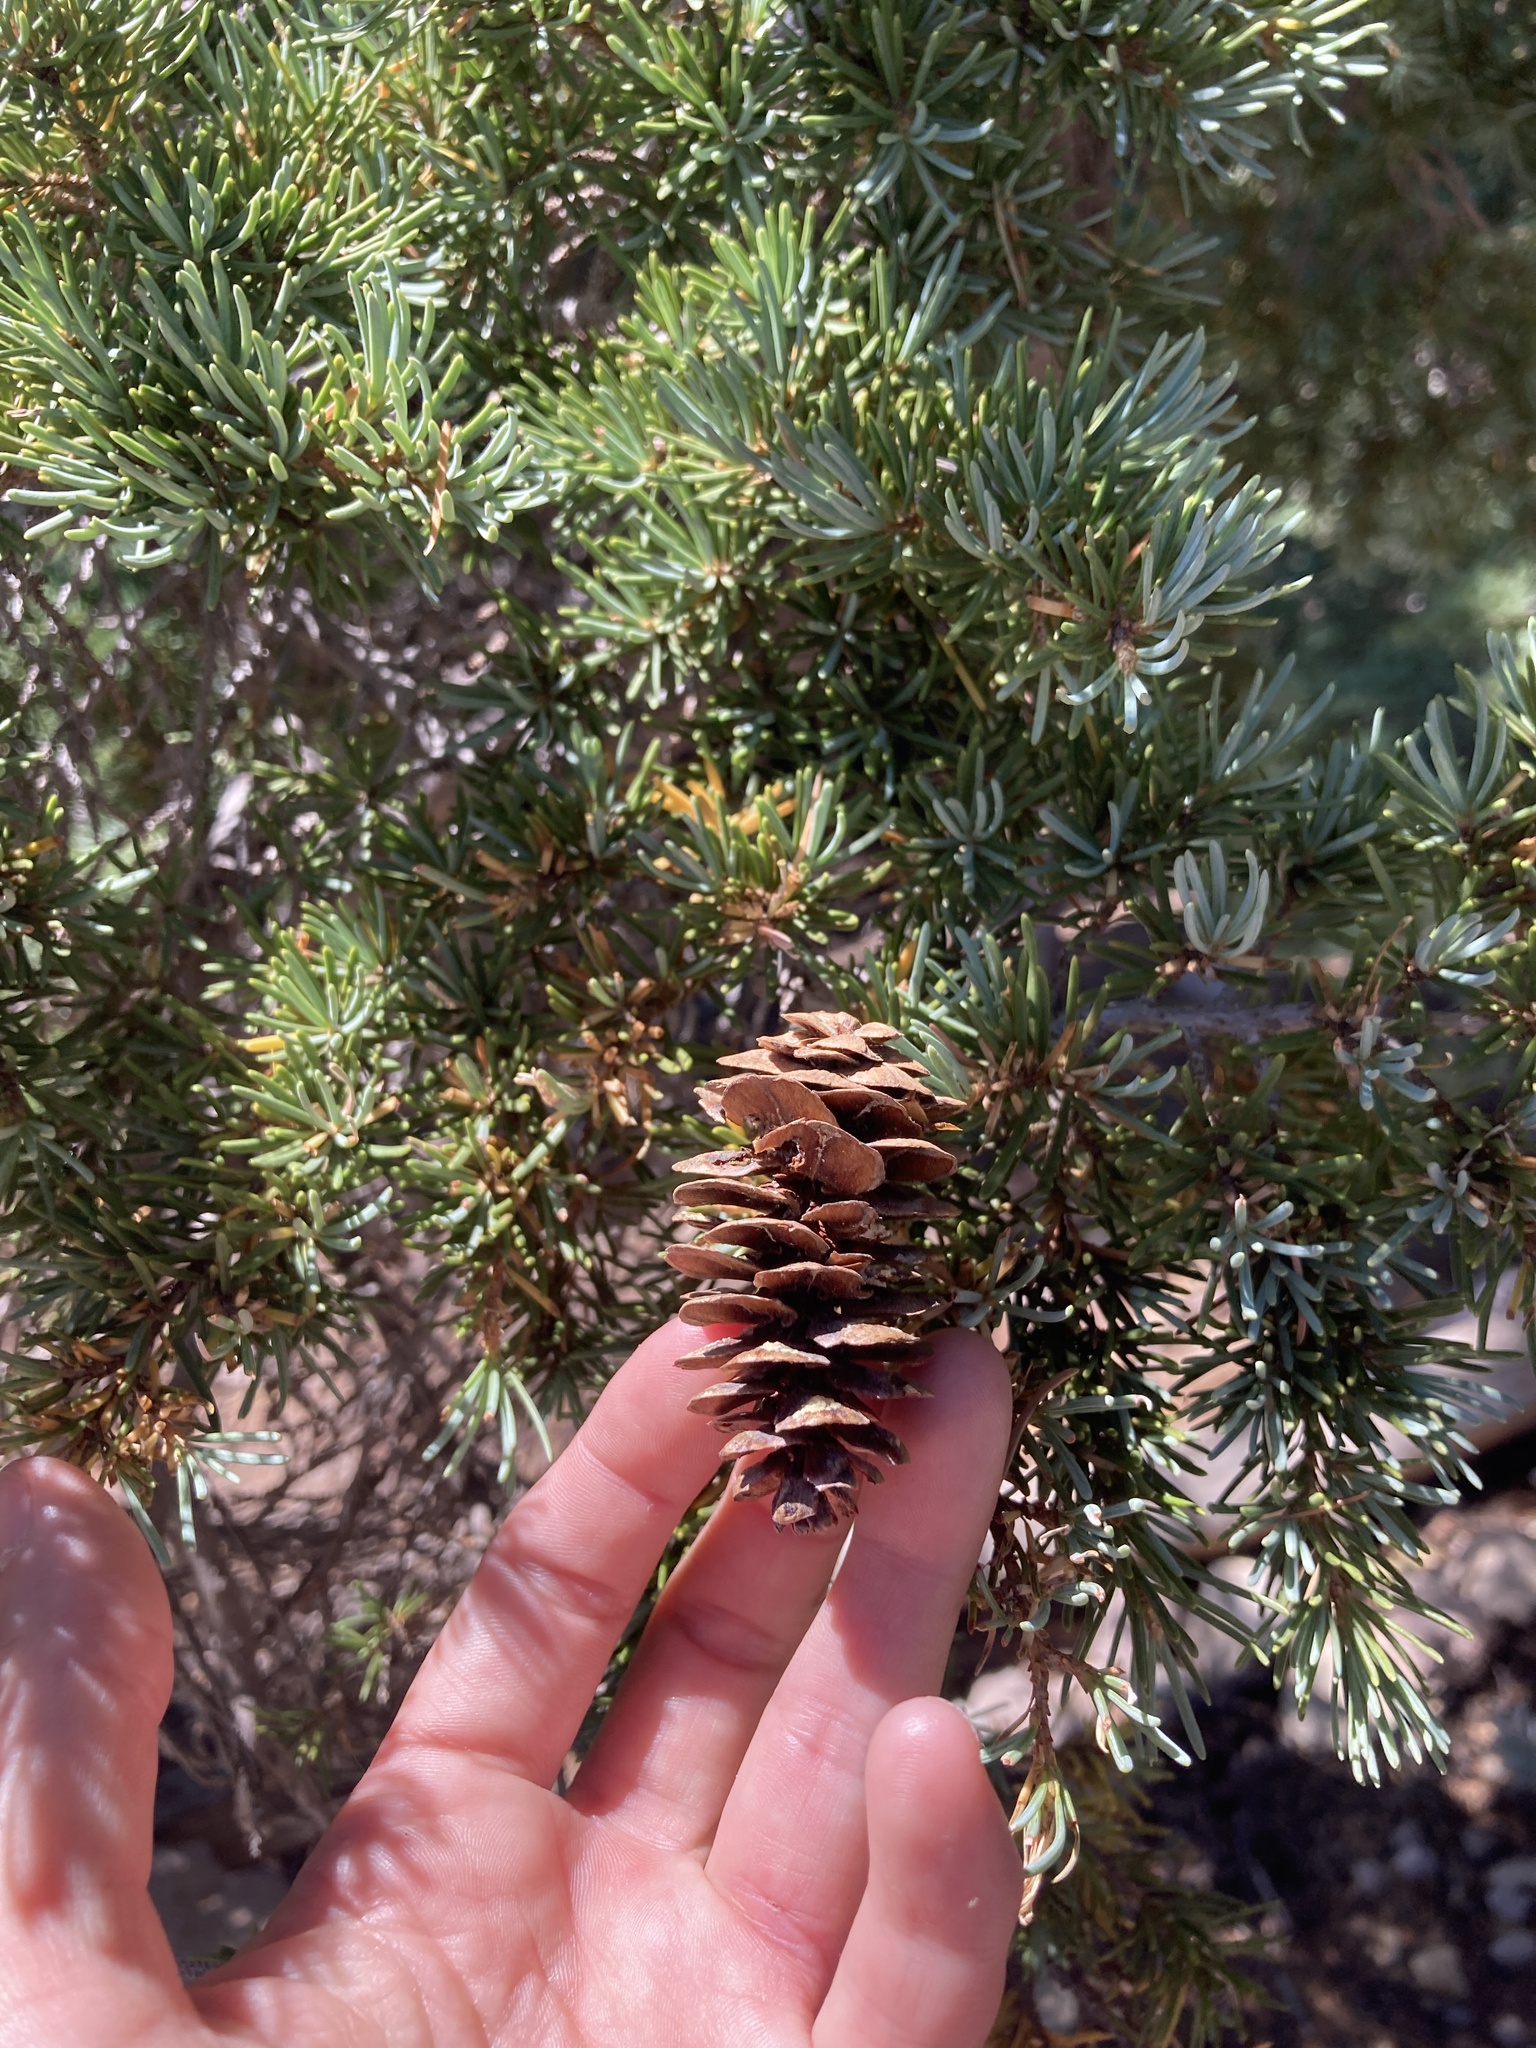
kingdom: Plantae
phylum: Tracheophyta
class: Pinopsida
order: Pinales
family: Pinaceae
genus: Tsuga
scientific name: Tsuga mertensiana
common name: Mountain hemlock
